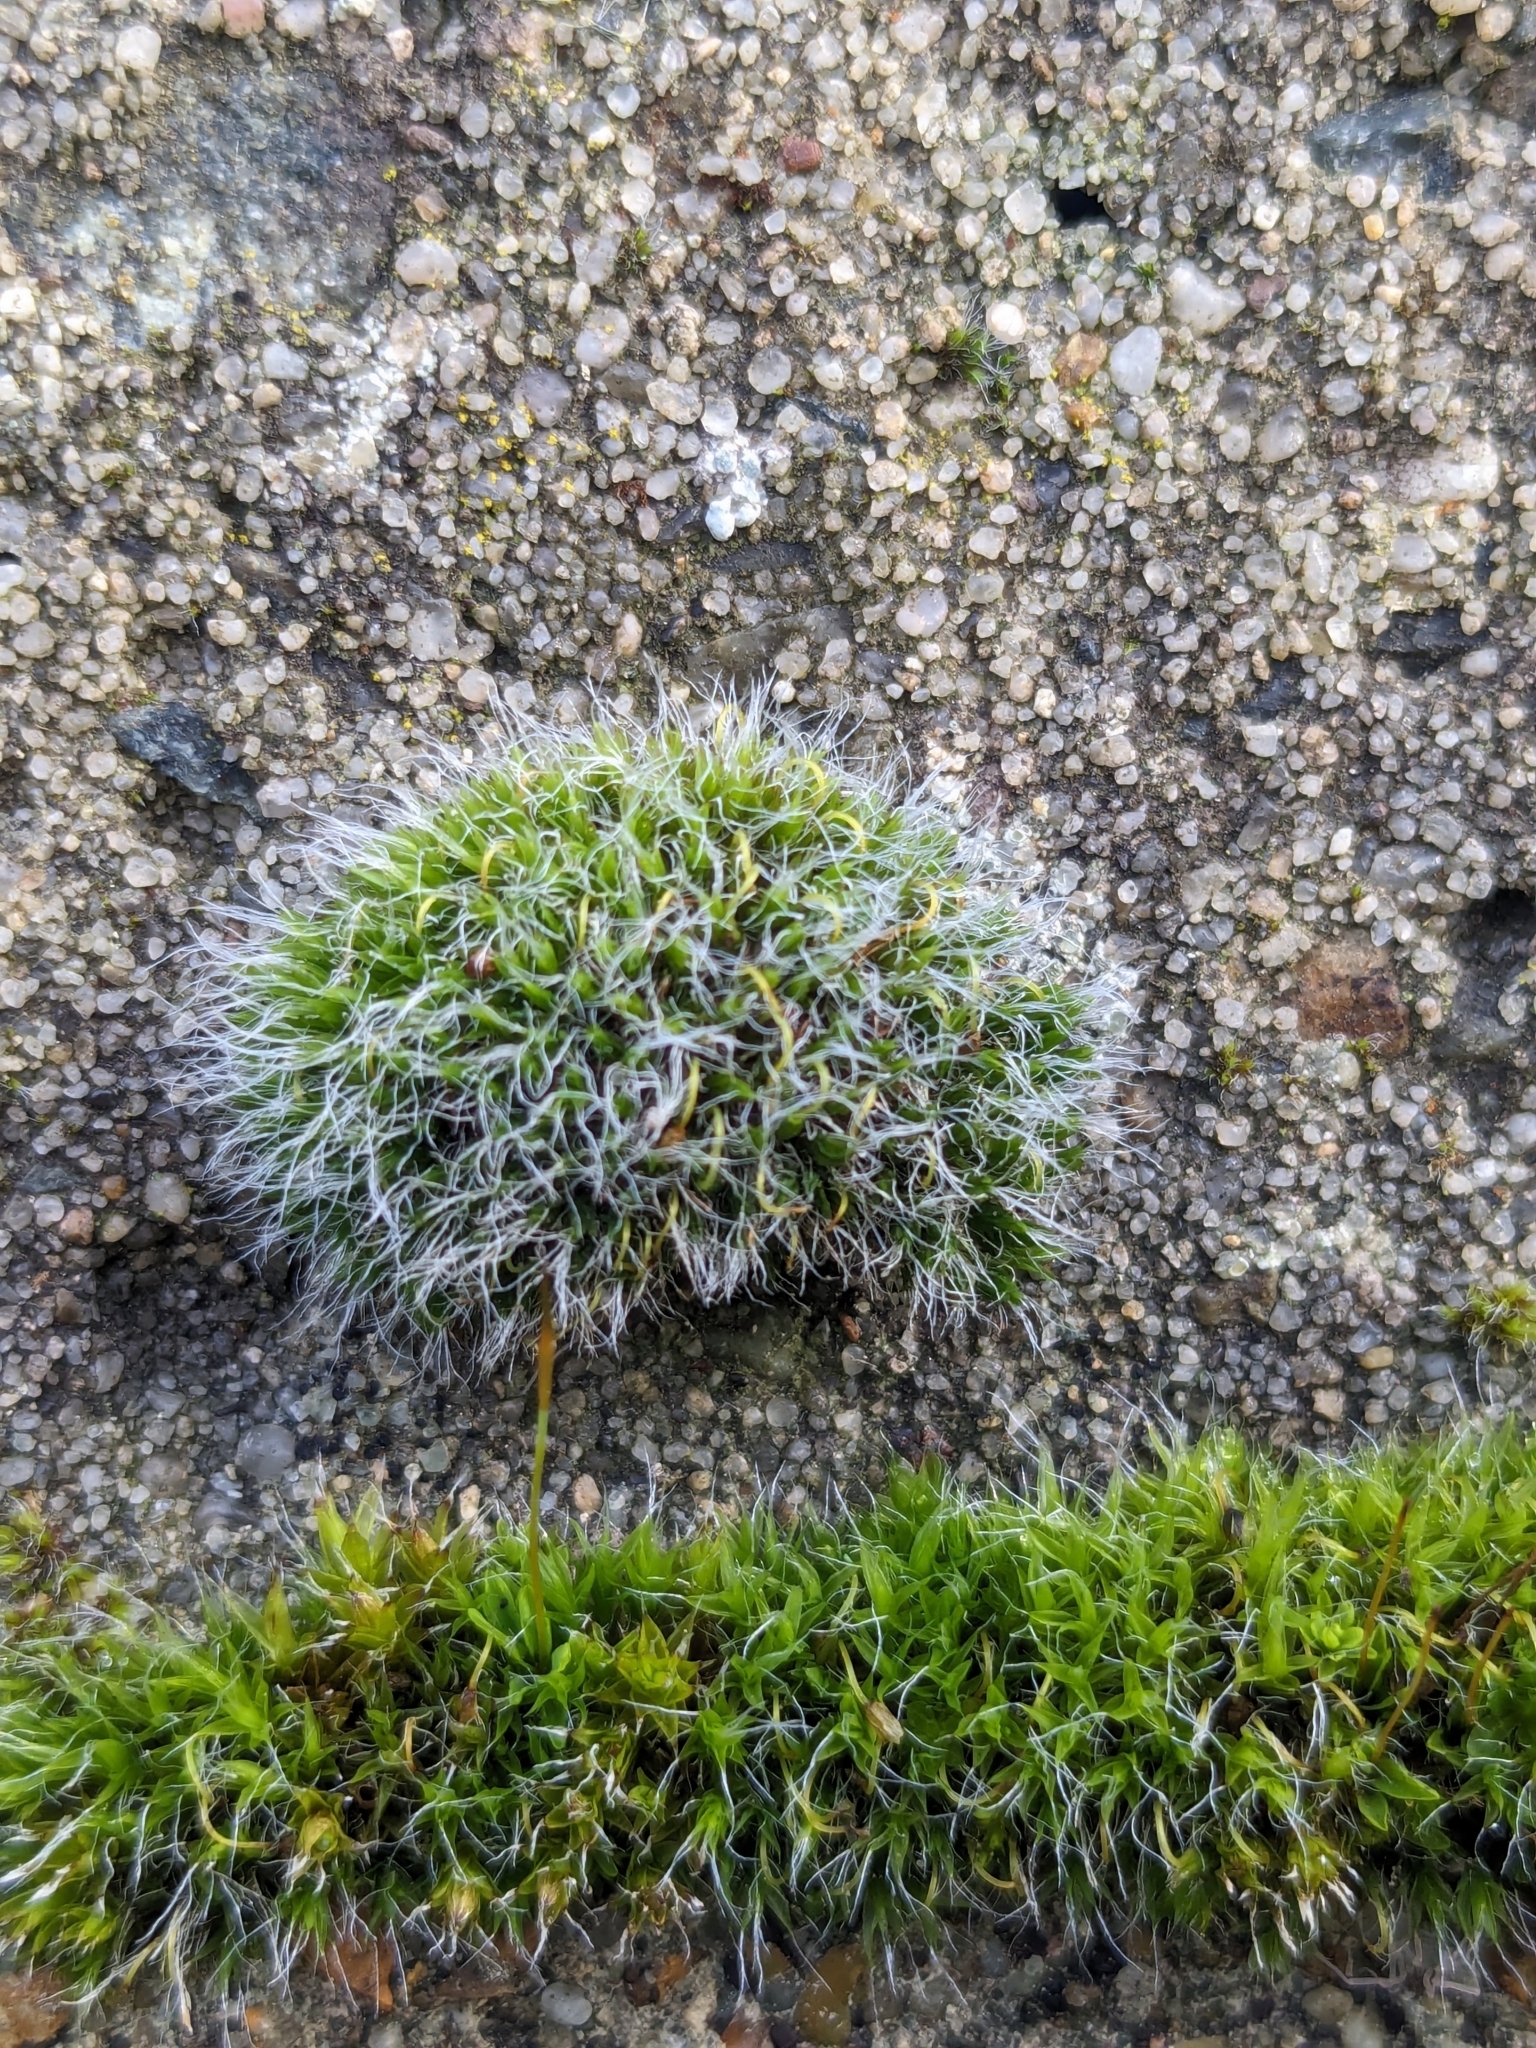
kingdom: Plantae
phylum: Bryophyta
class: Bryopsida
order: Grimmiales
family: Grimmiaceae
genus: Grimmia
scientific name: Grimmia pulvinata
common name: Grey-cushioned grimmia
